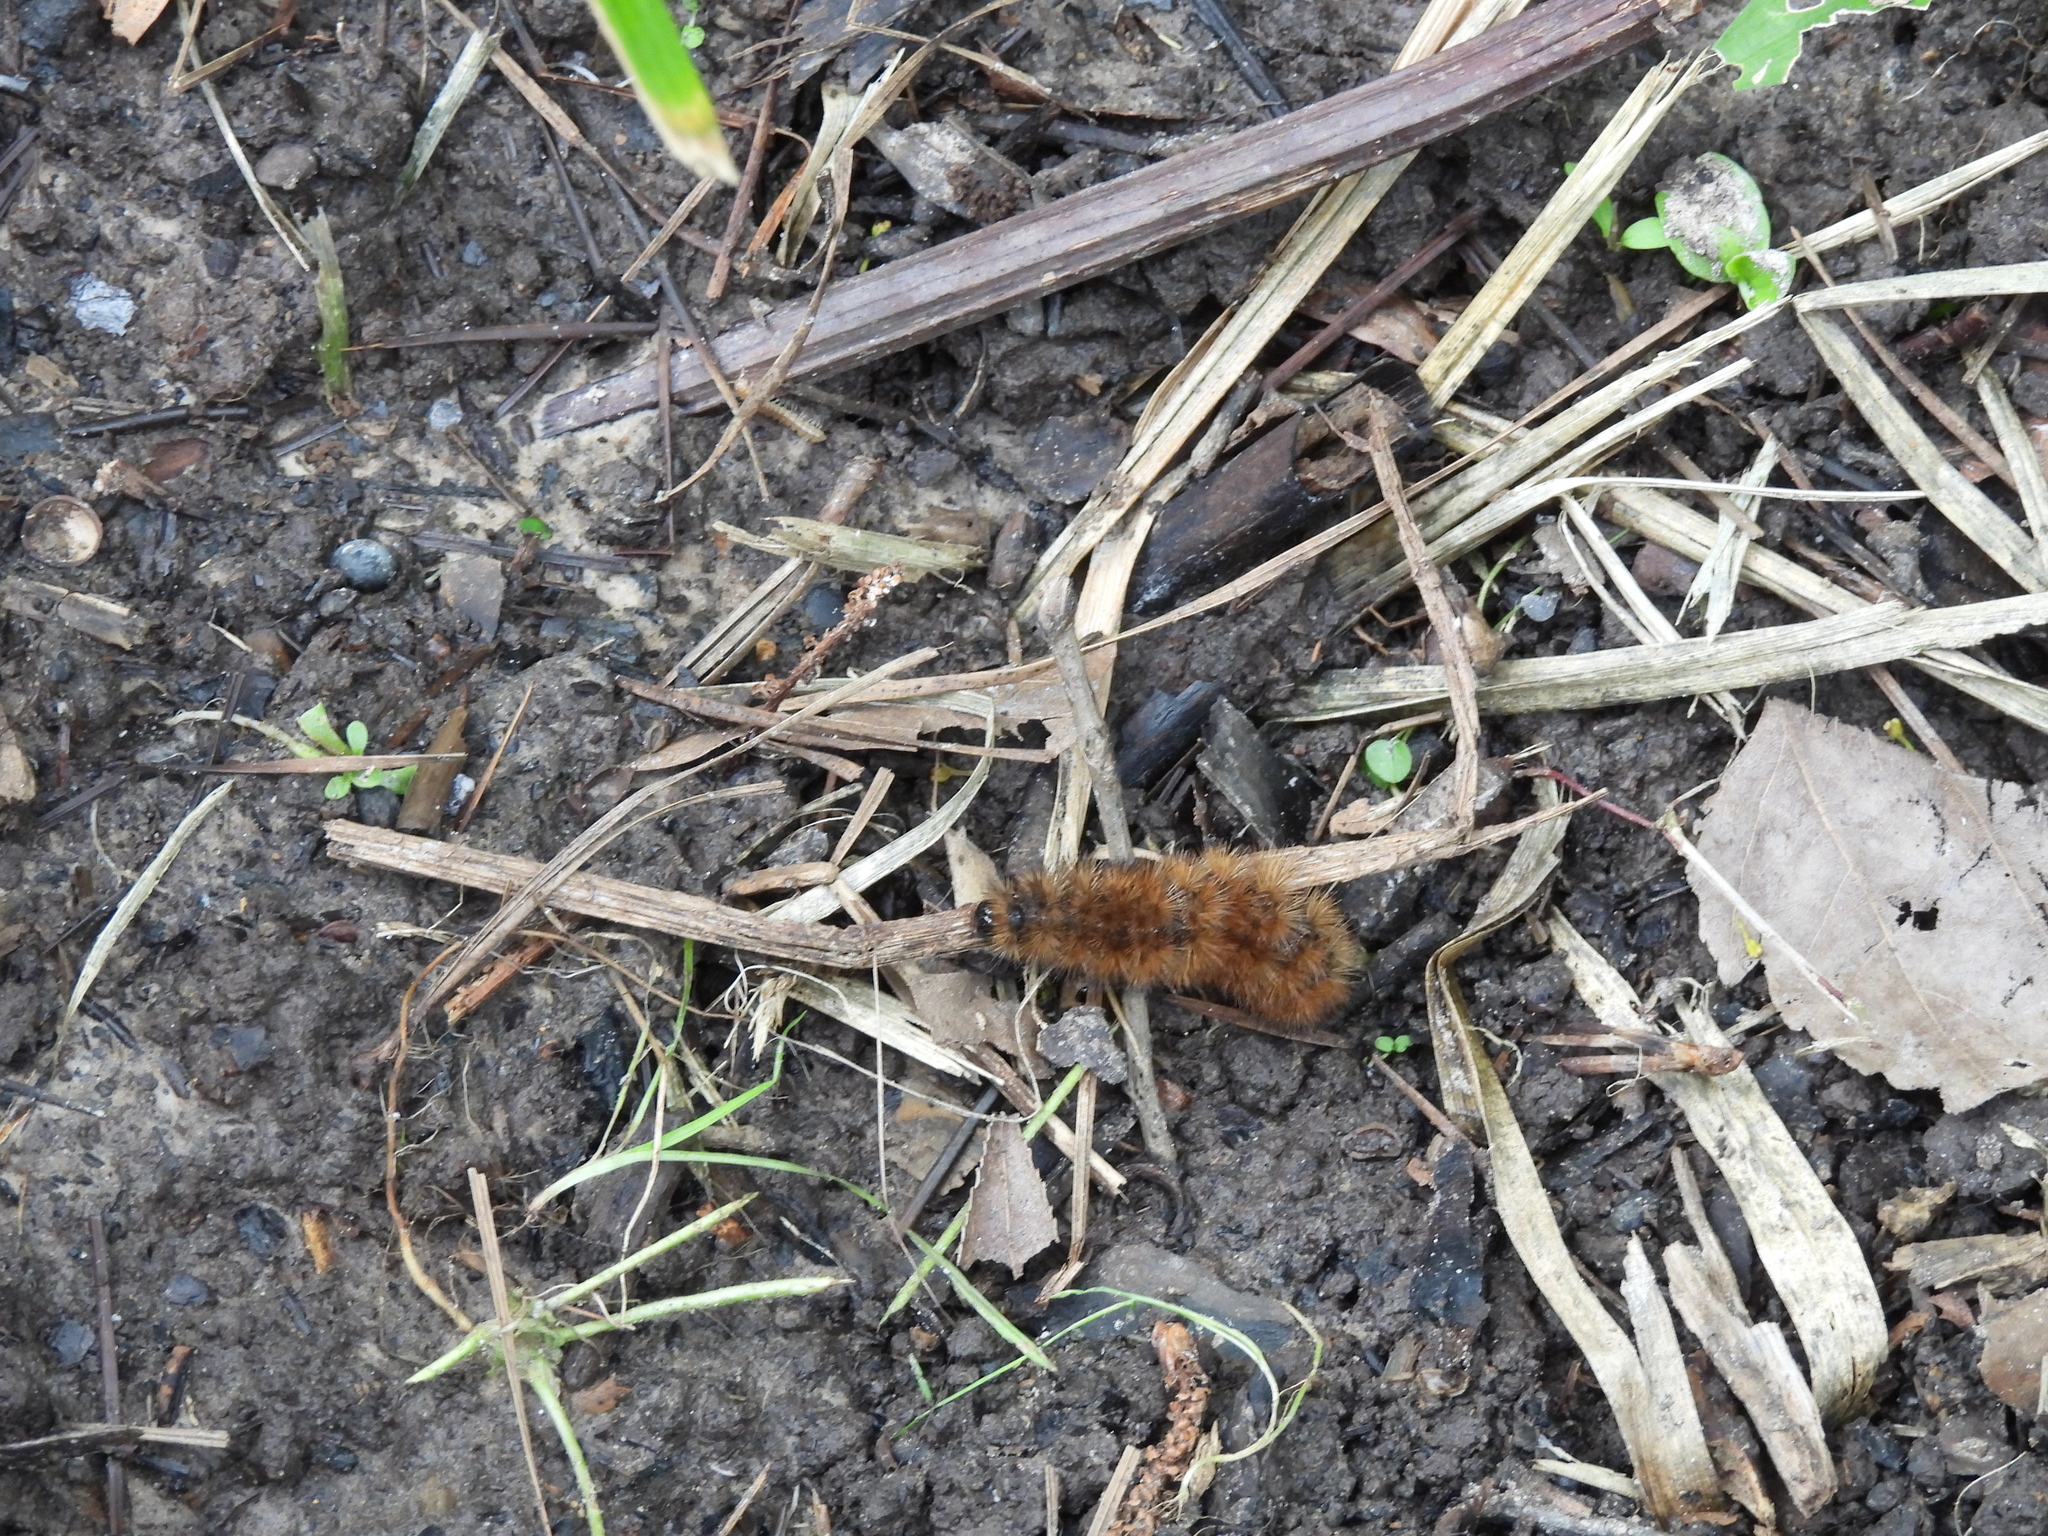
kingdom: Animalia
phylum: Arthropoda
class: Insecta
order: Lepidoptera
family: Erebidae
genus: Pyrrharctia
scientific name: Pyrrharctia isabella
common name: Isabella tiger moth
